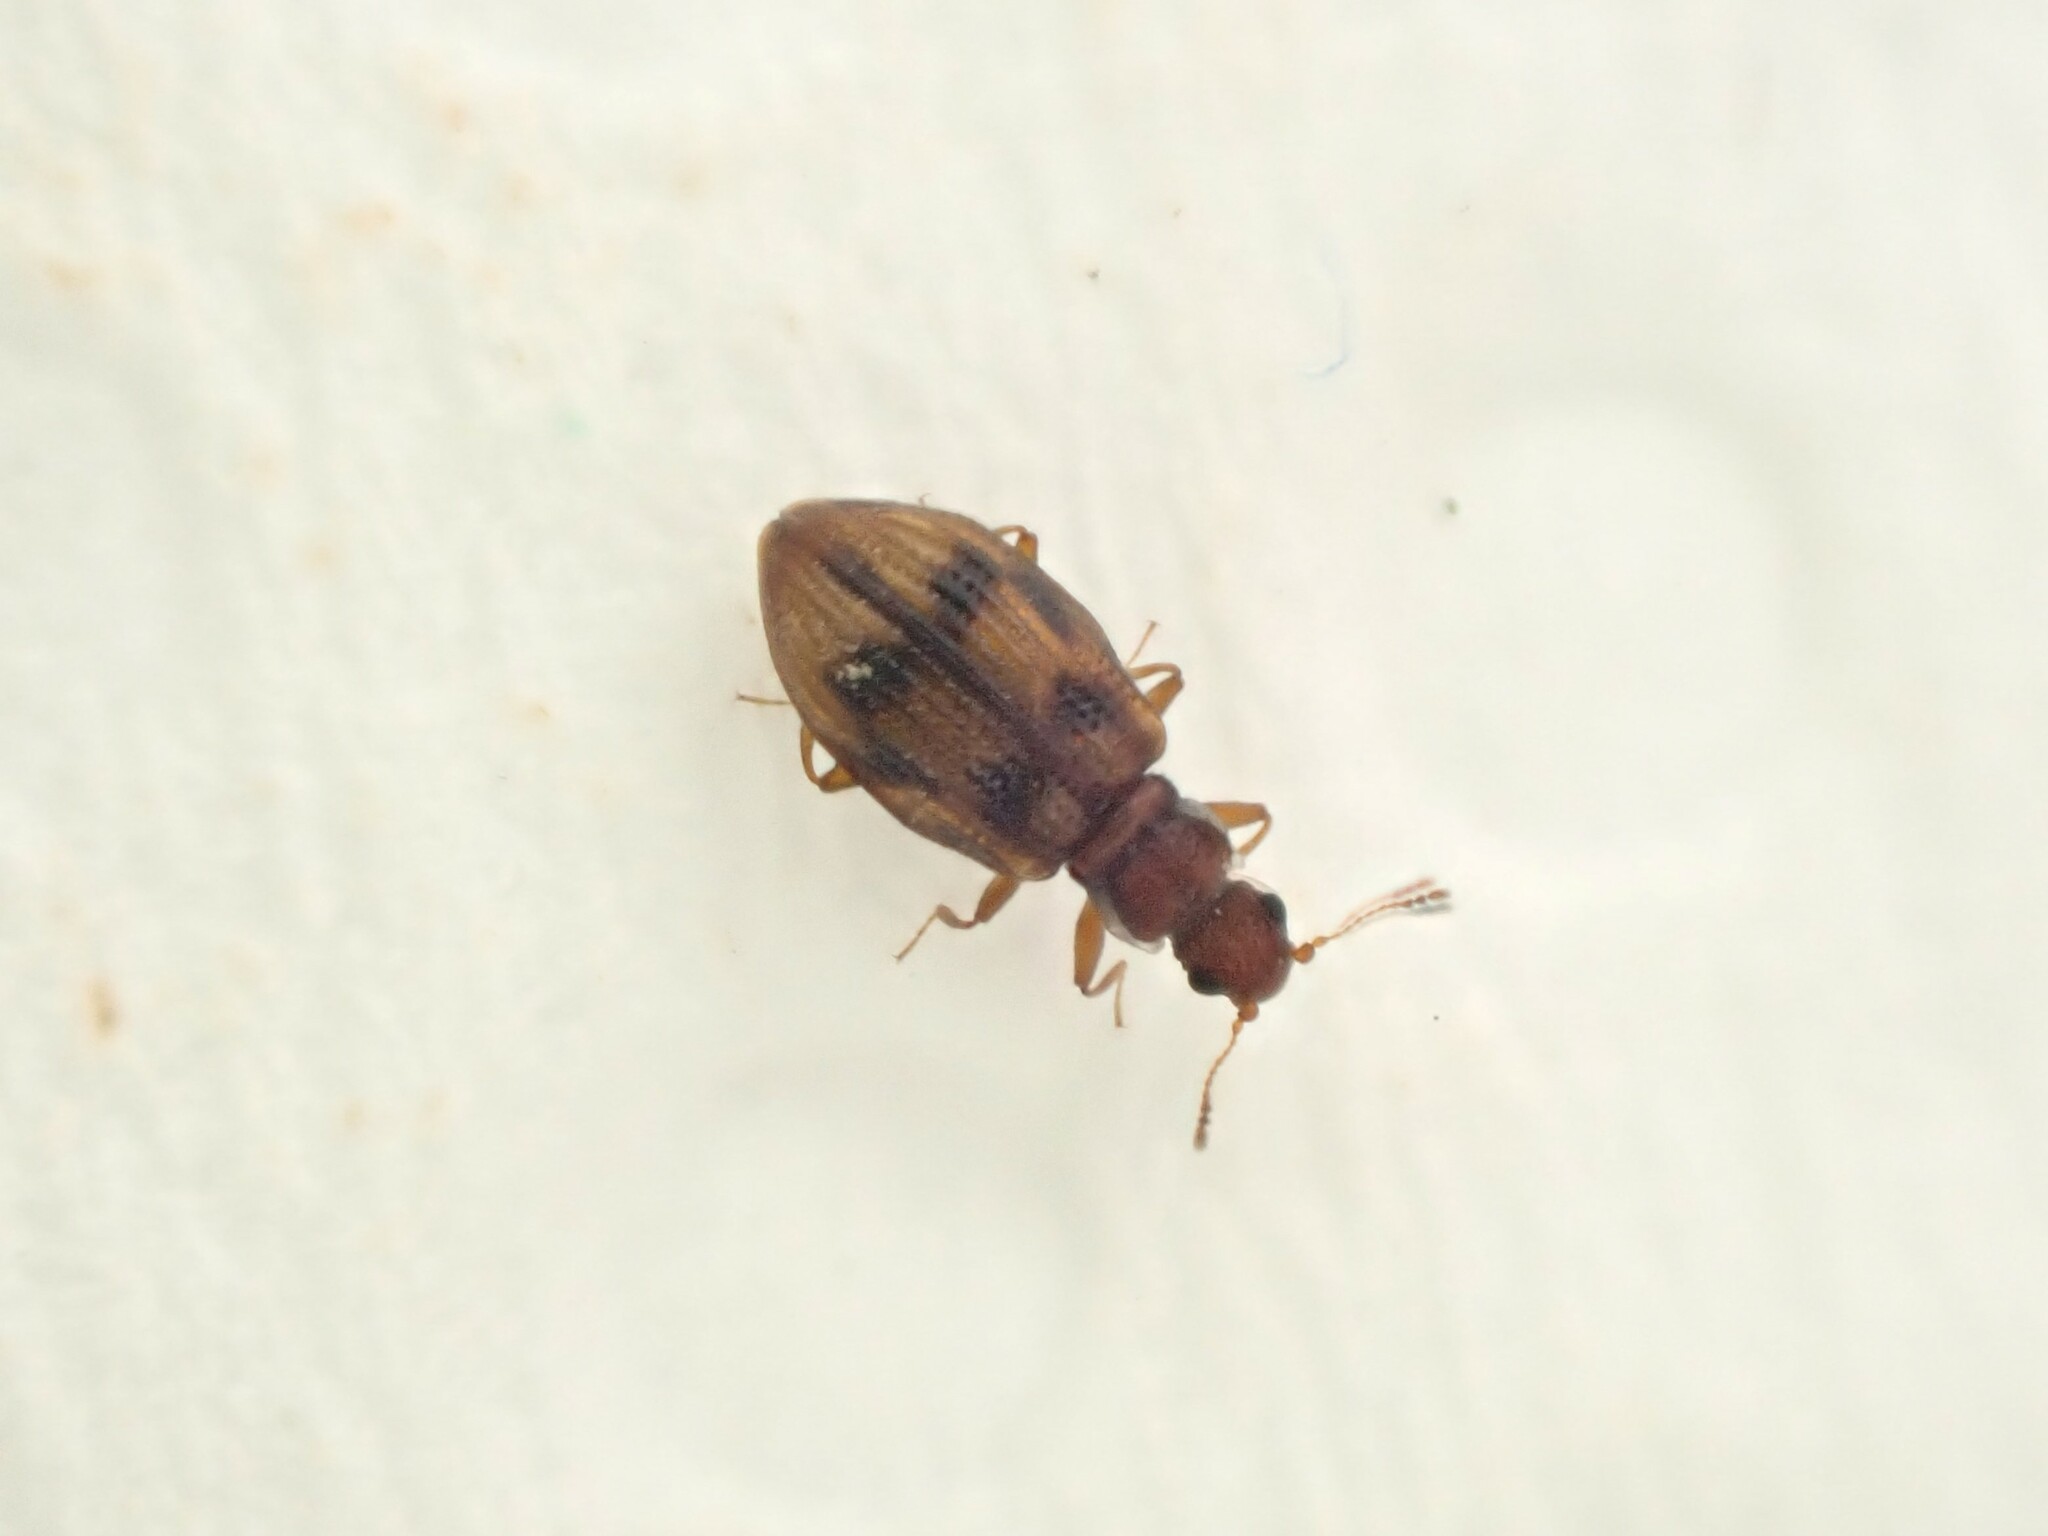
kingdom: Animalia
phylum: Arthropoda
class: Insecta
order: Coleoptera
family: Latridiidae
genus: Cartodere
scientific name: Cartodere bifasciata
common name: Plaster beetle
